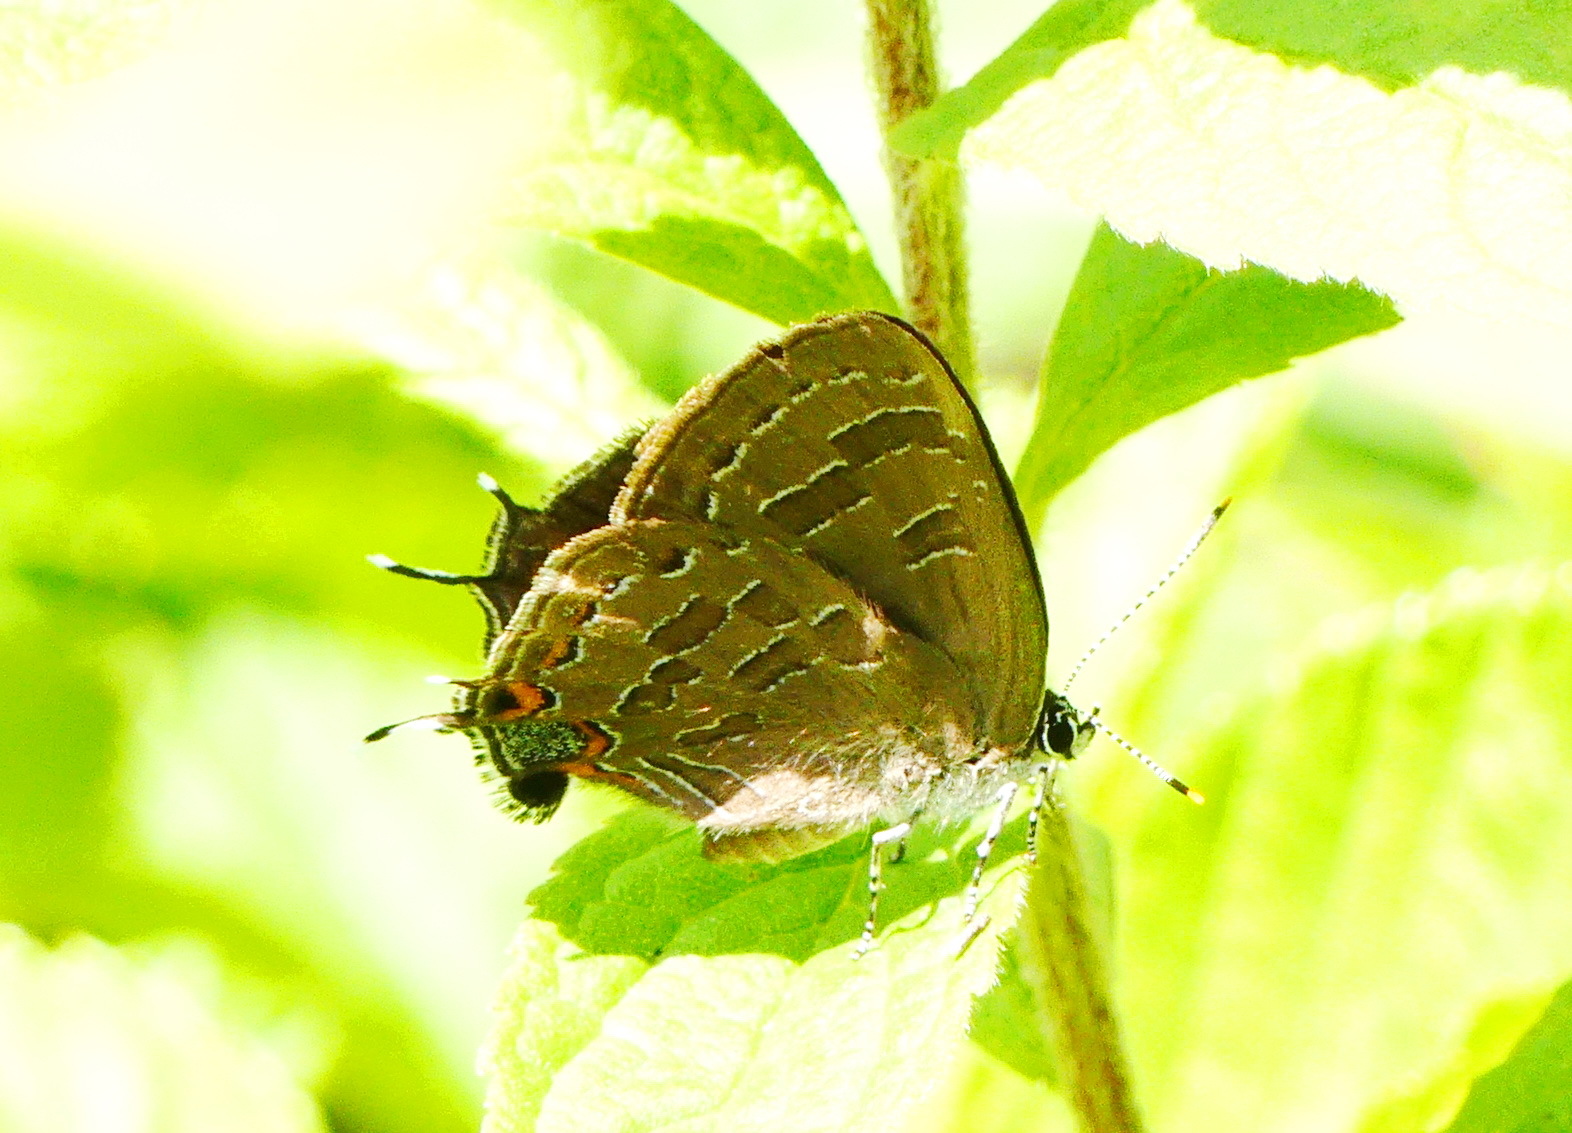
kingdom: Animalia
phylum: Arthropoda
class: Insecta
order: Lepidoptera
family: Lycaenidae
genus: Satyrium
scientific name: Satyrium liparops
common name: Striped hairstreak
